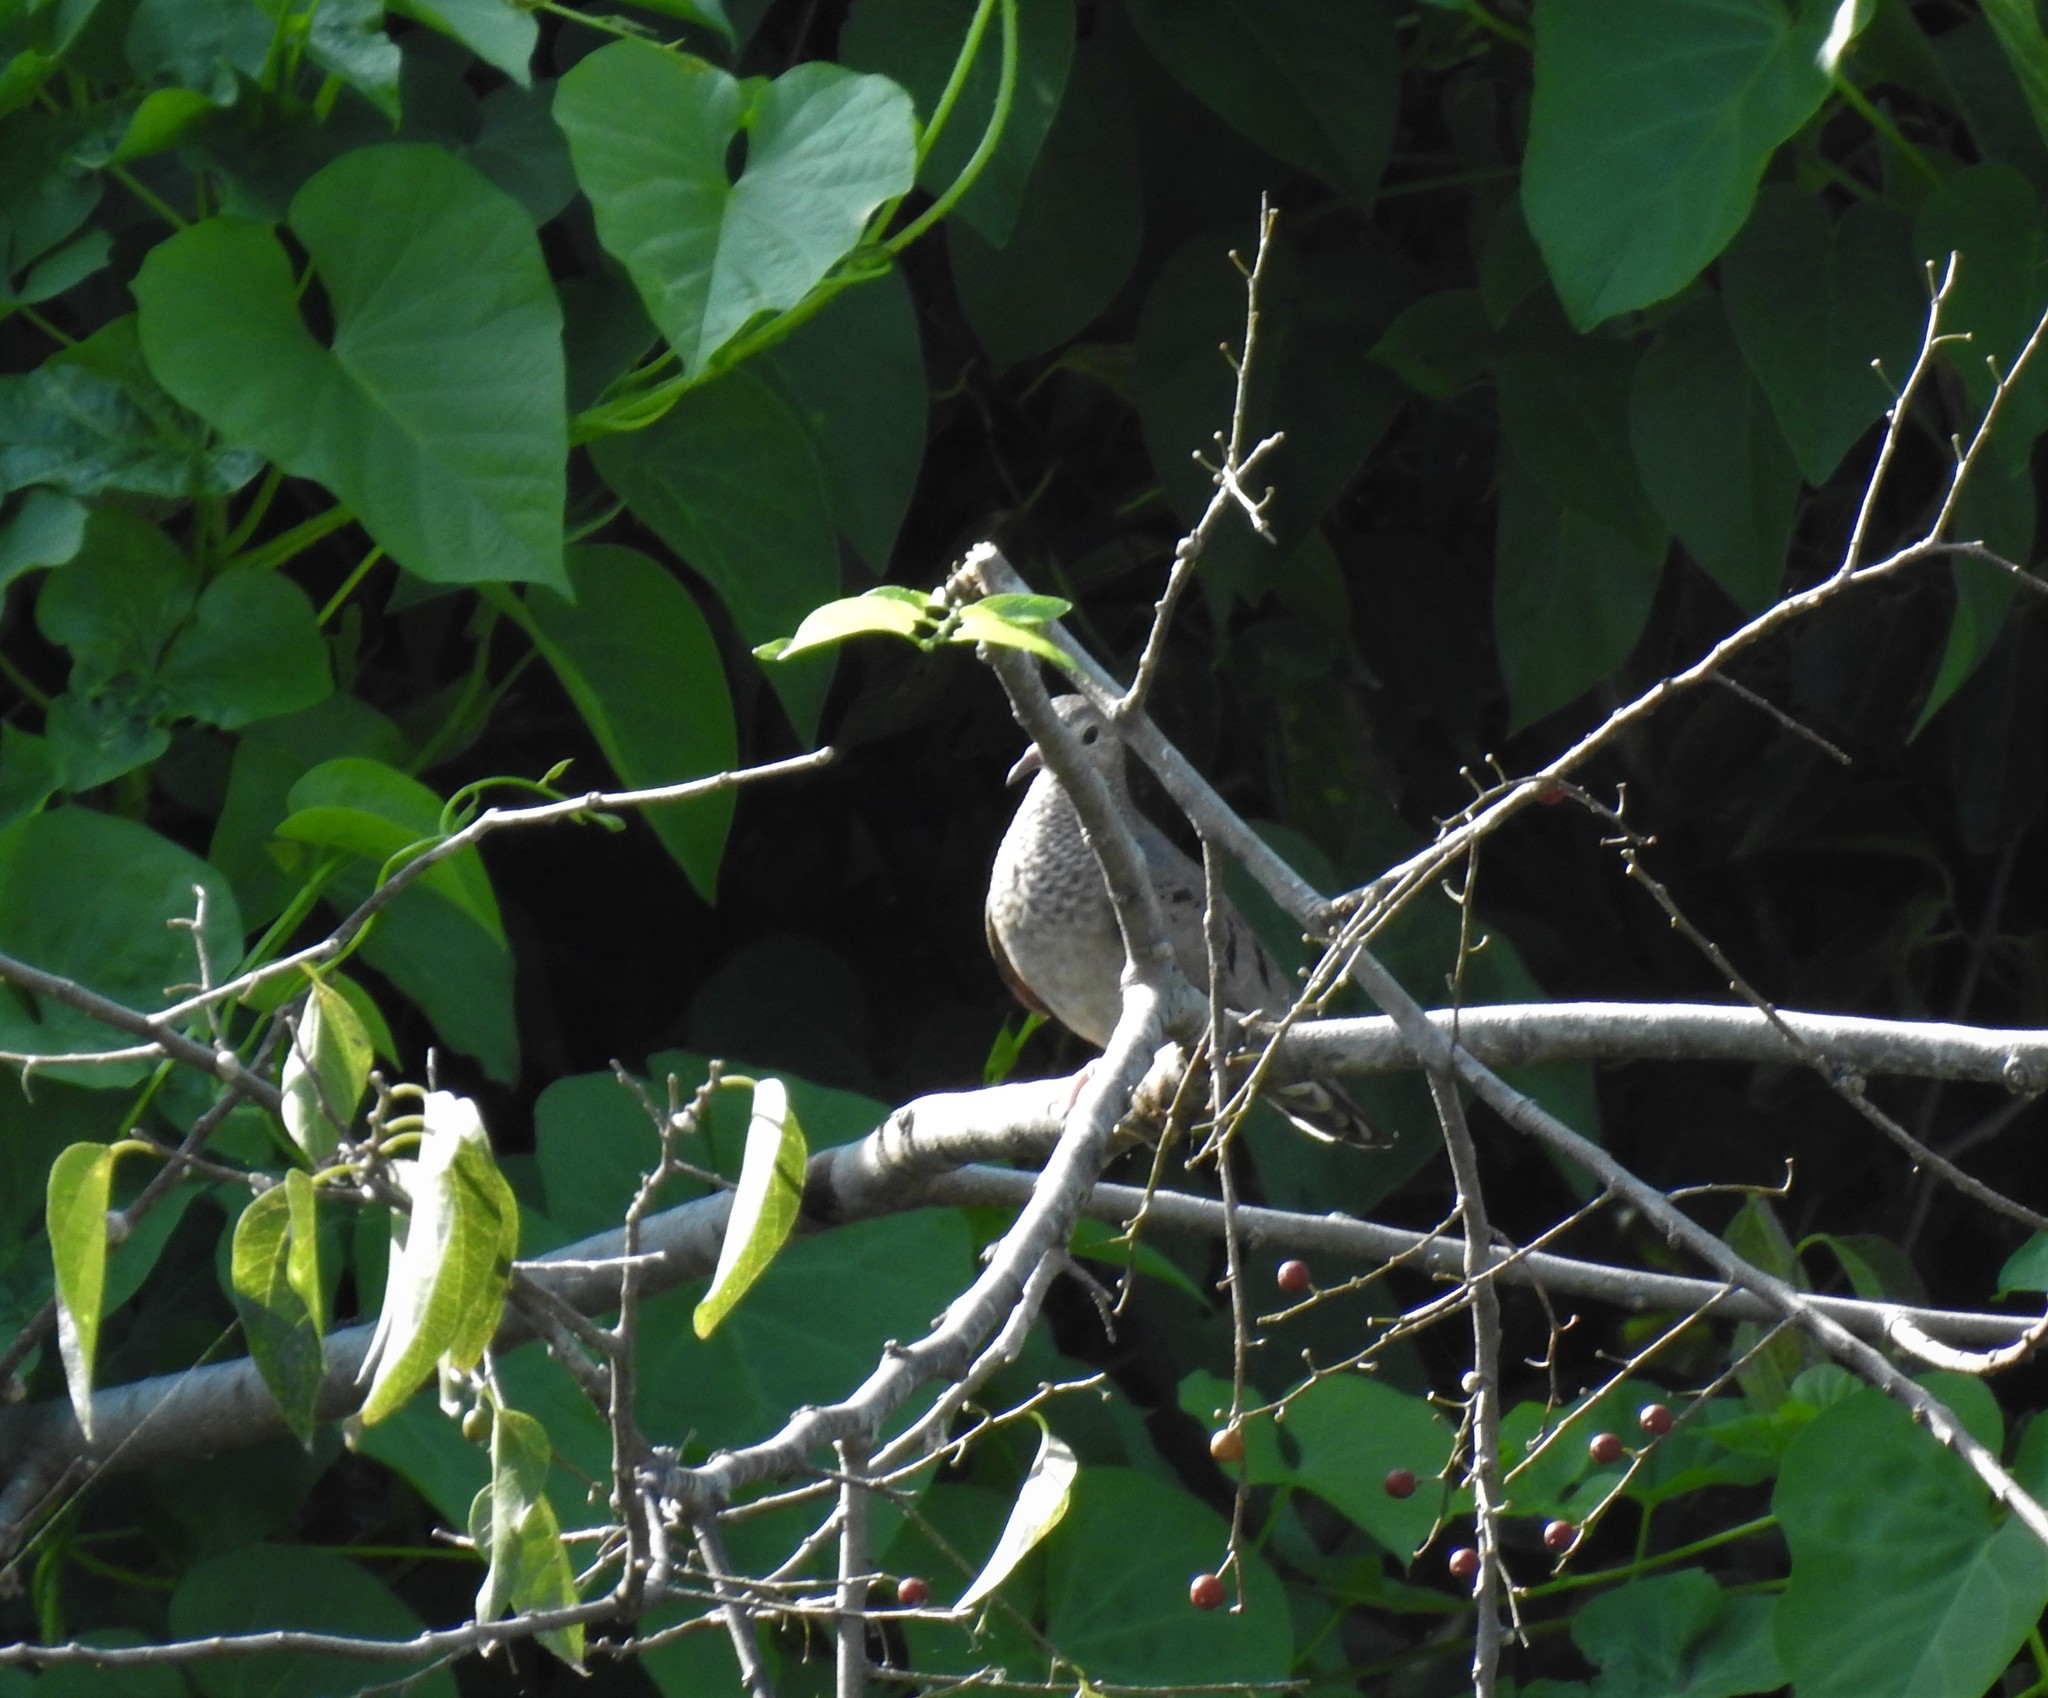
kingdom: Animalia
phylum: Chordata
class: Aves
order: Columbiformes
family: Columbidae
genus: Columbina
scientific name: Columbina passerina
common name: Common ground-dove
